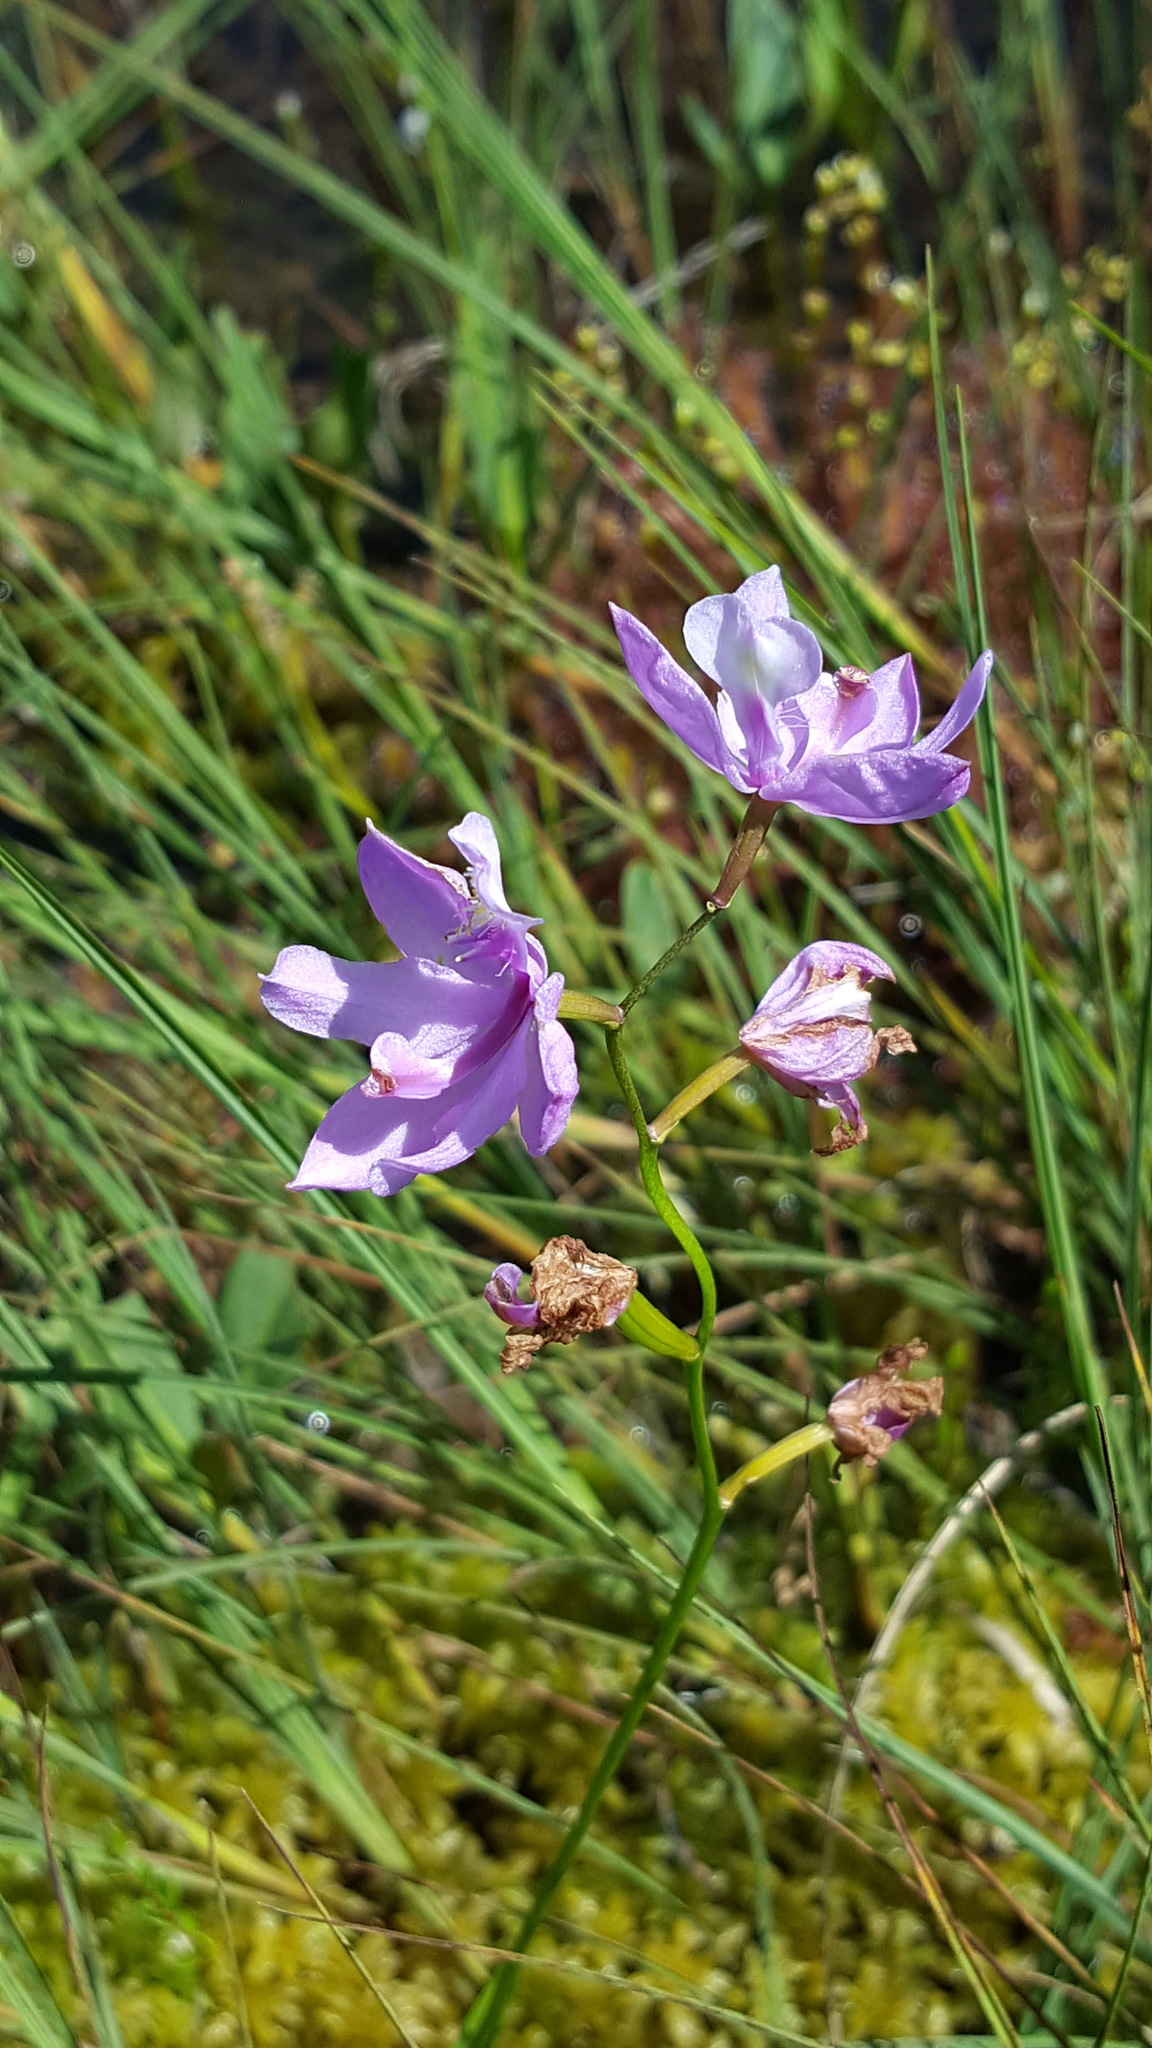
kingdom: Plantae
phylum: Tracheophyta
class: Liliopsida
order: Asparagales
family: Orchidaceae
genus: Calopogon
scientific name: Calopogon tuberosus
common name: Grass-pink
